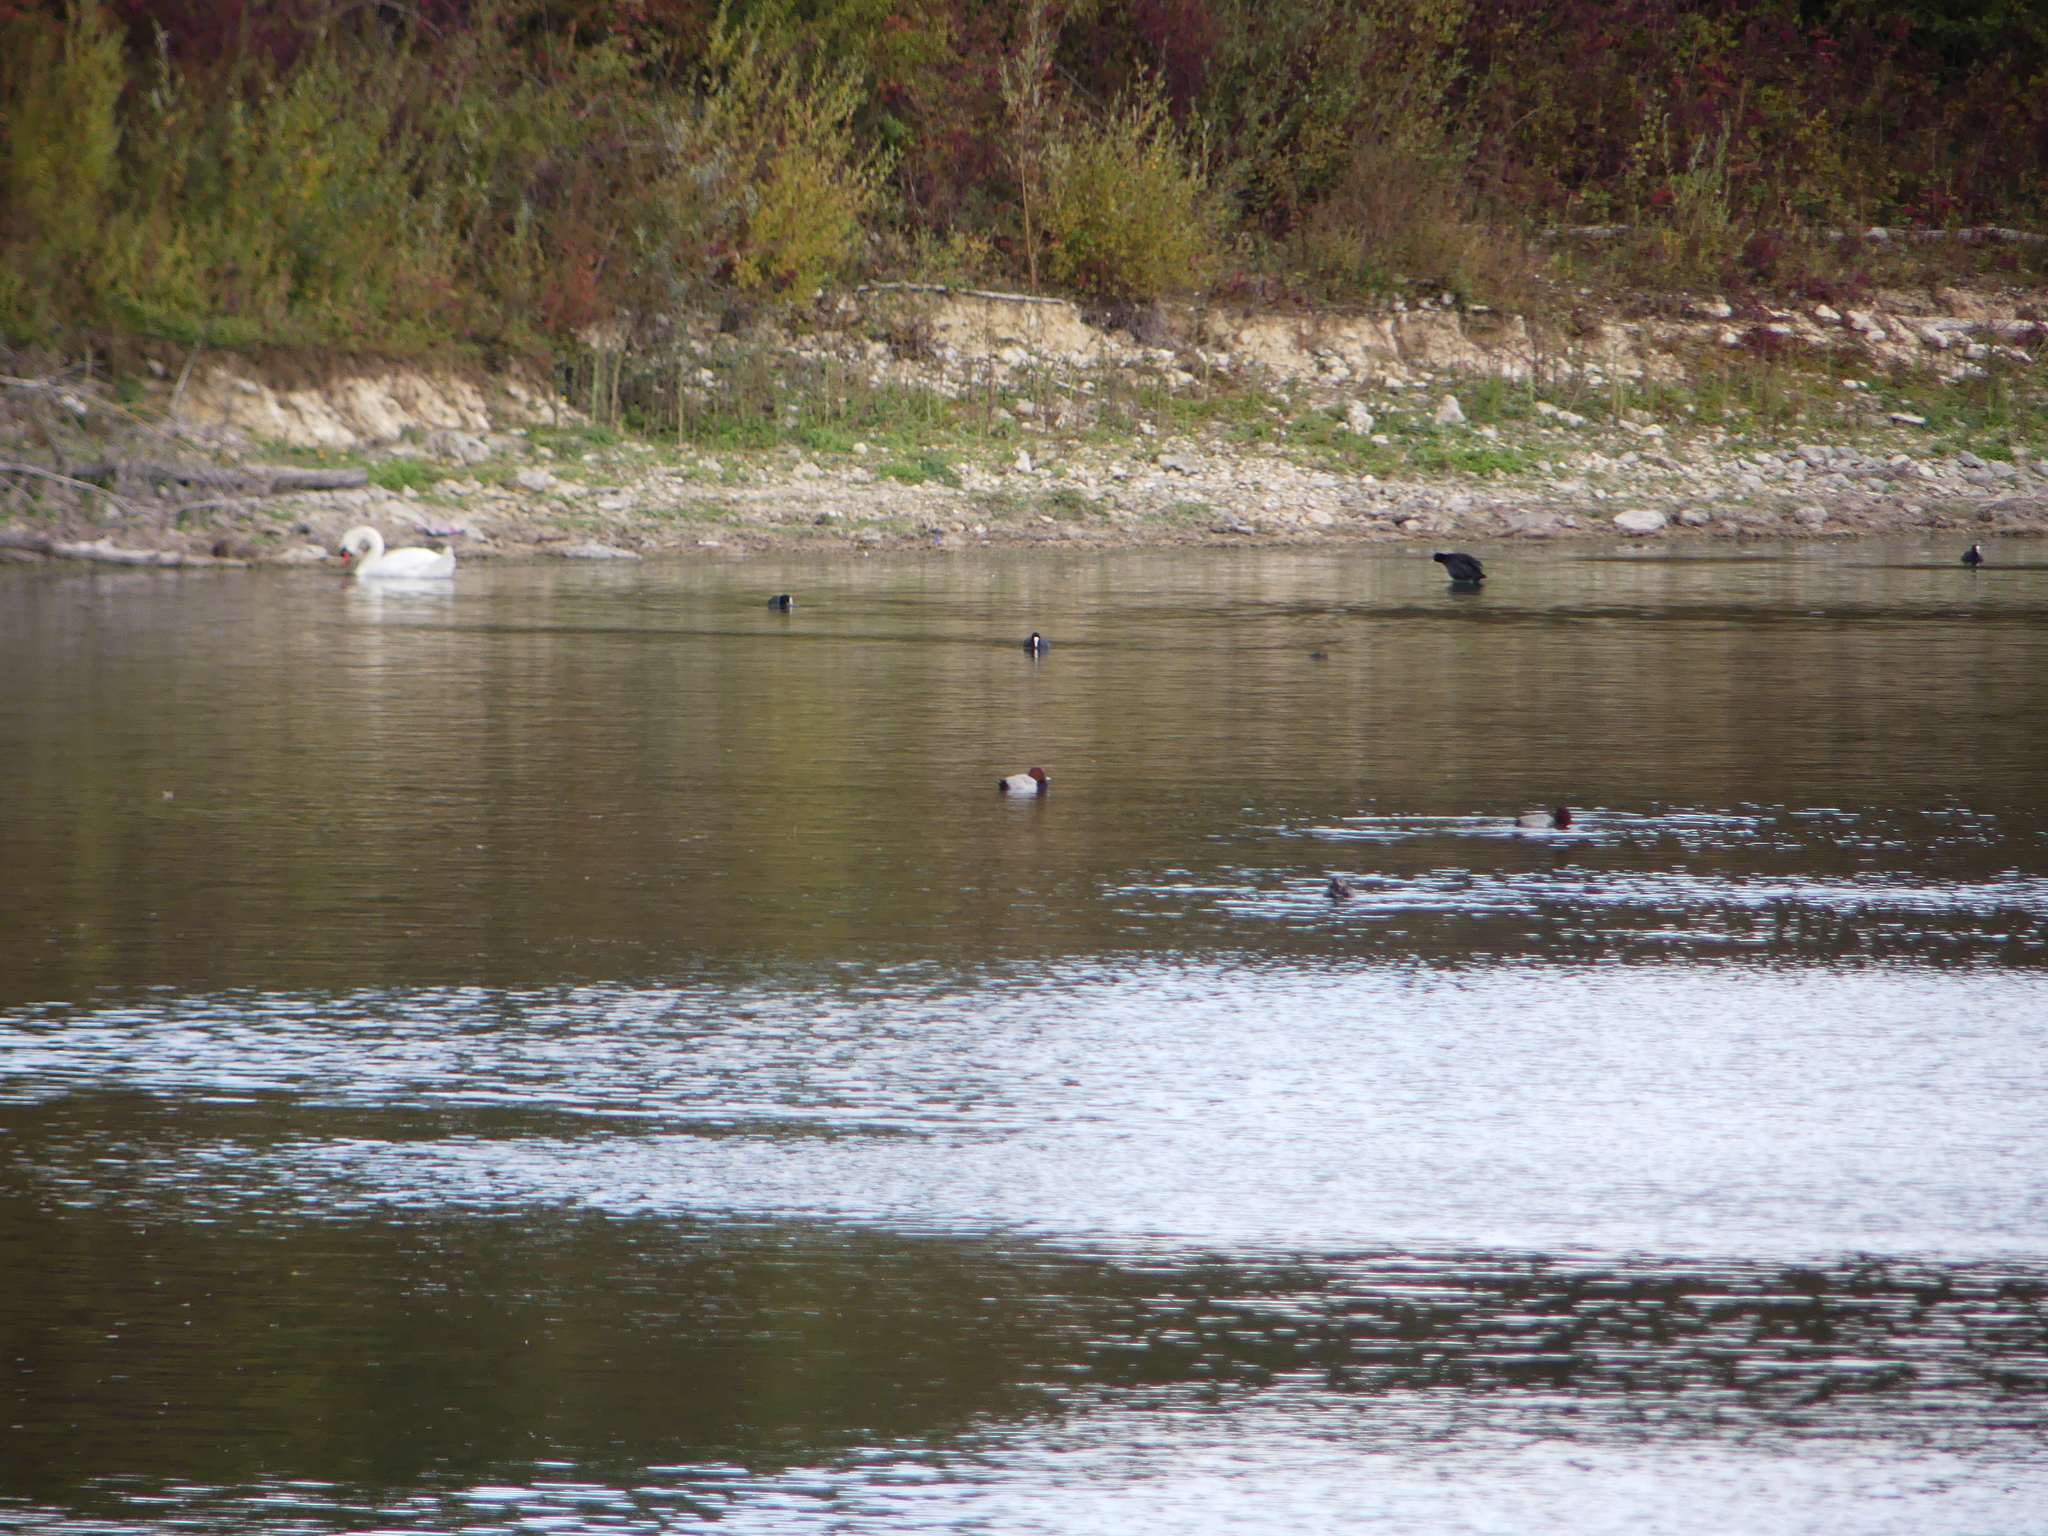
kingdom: Animalia
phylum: Chordata
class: Aves
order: Anseriformes
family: Anatidae
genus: Aythya
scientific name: Aythya ferina
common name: Common pochard
